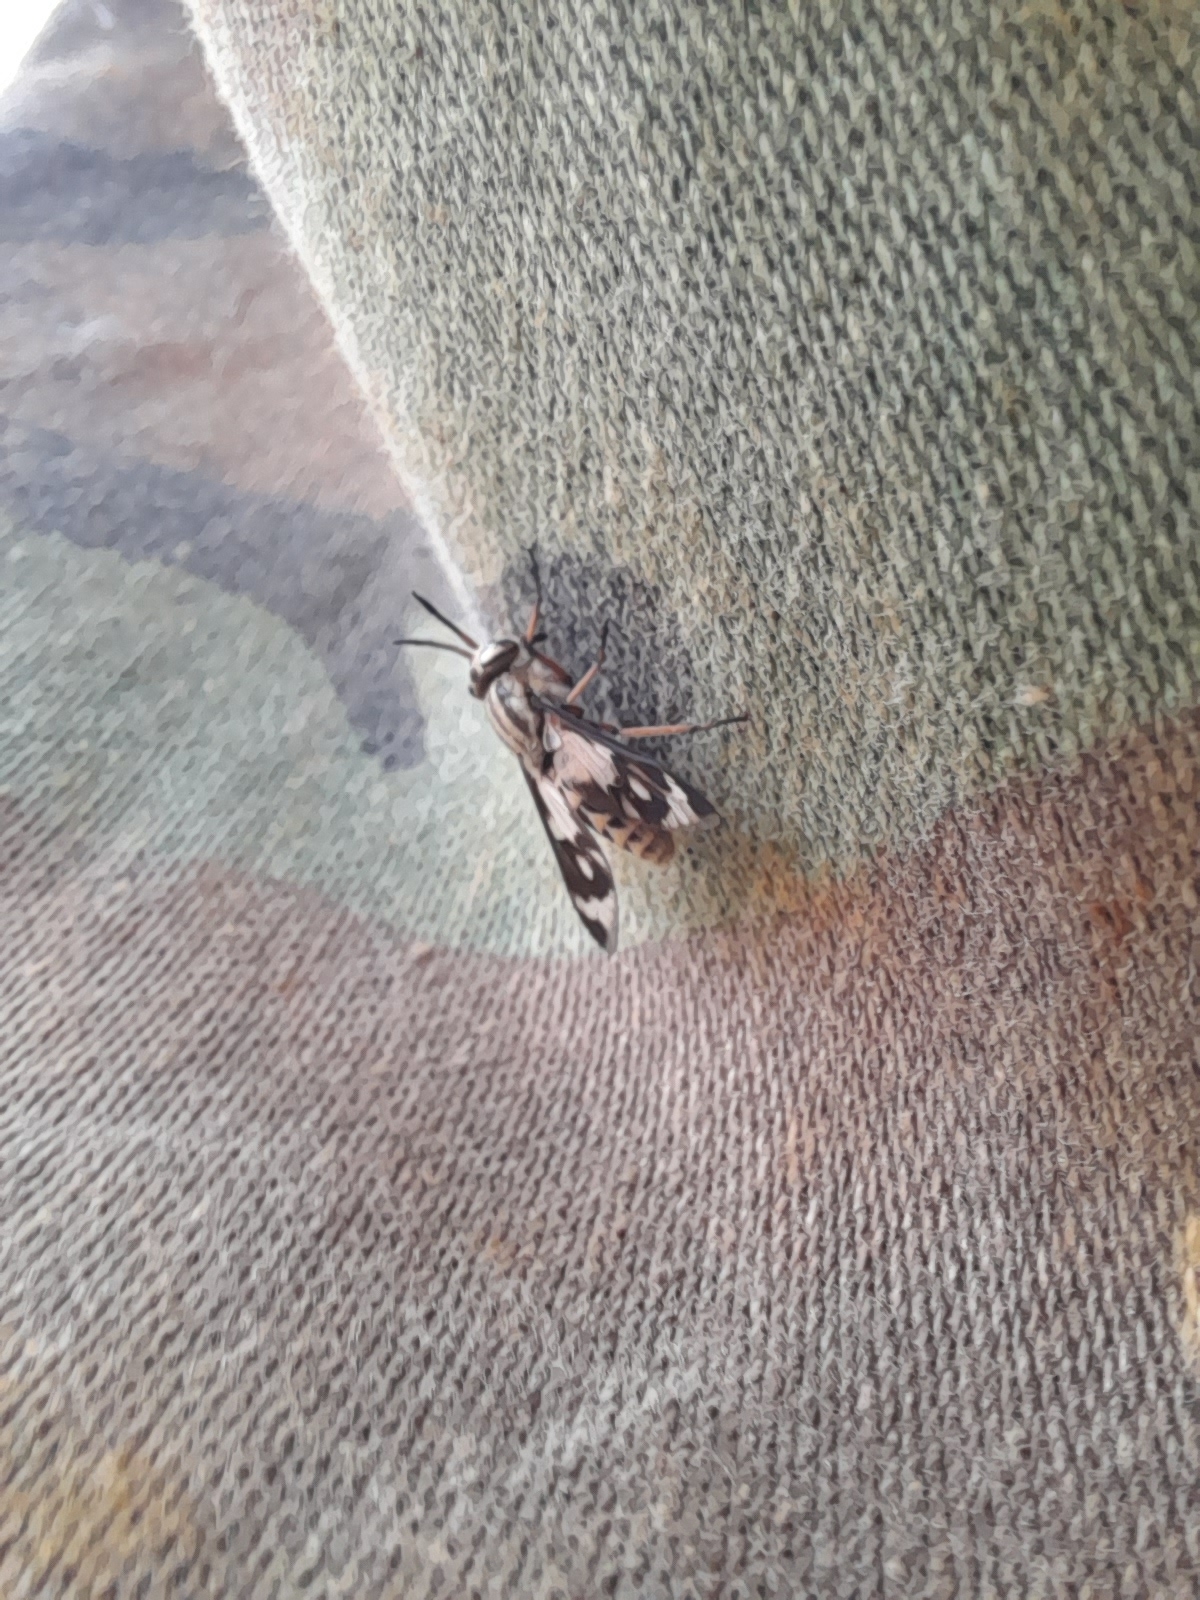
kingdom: Animalia
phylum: Arthropoda
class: Insecta
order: Diptera
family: Tabanidae
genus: Chrysops
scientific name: Chrysops italicus
